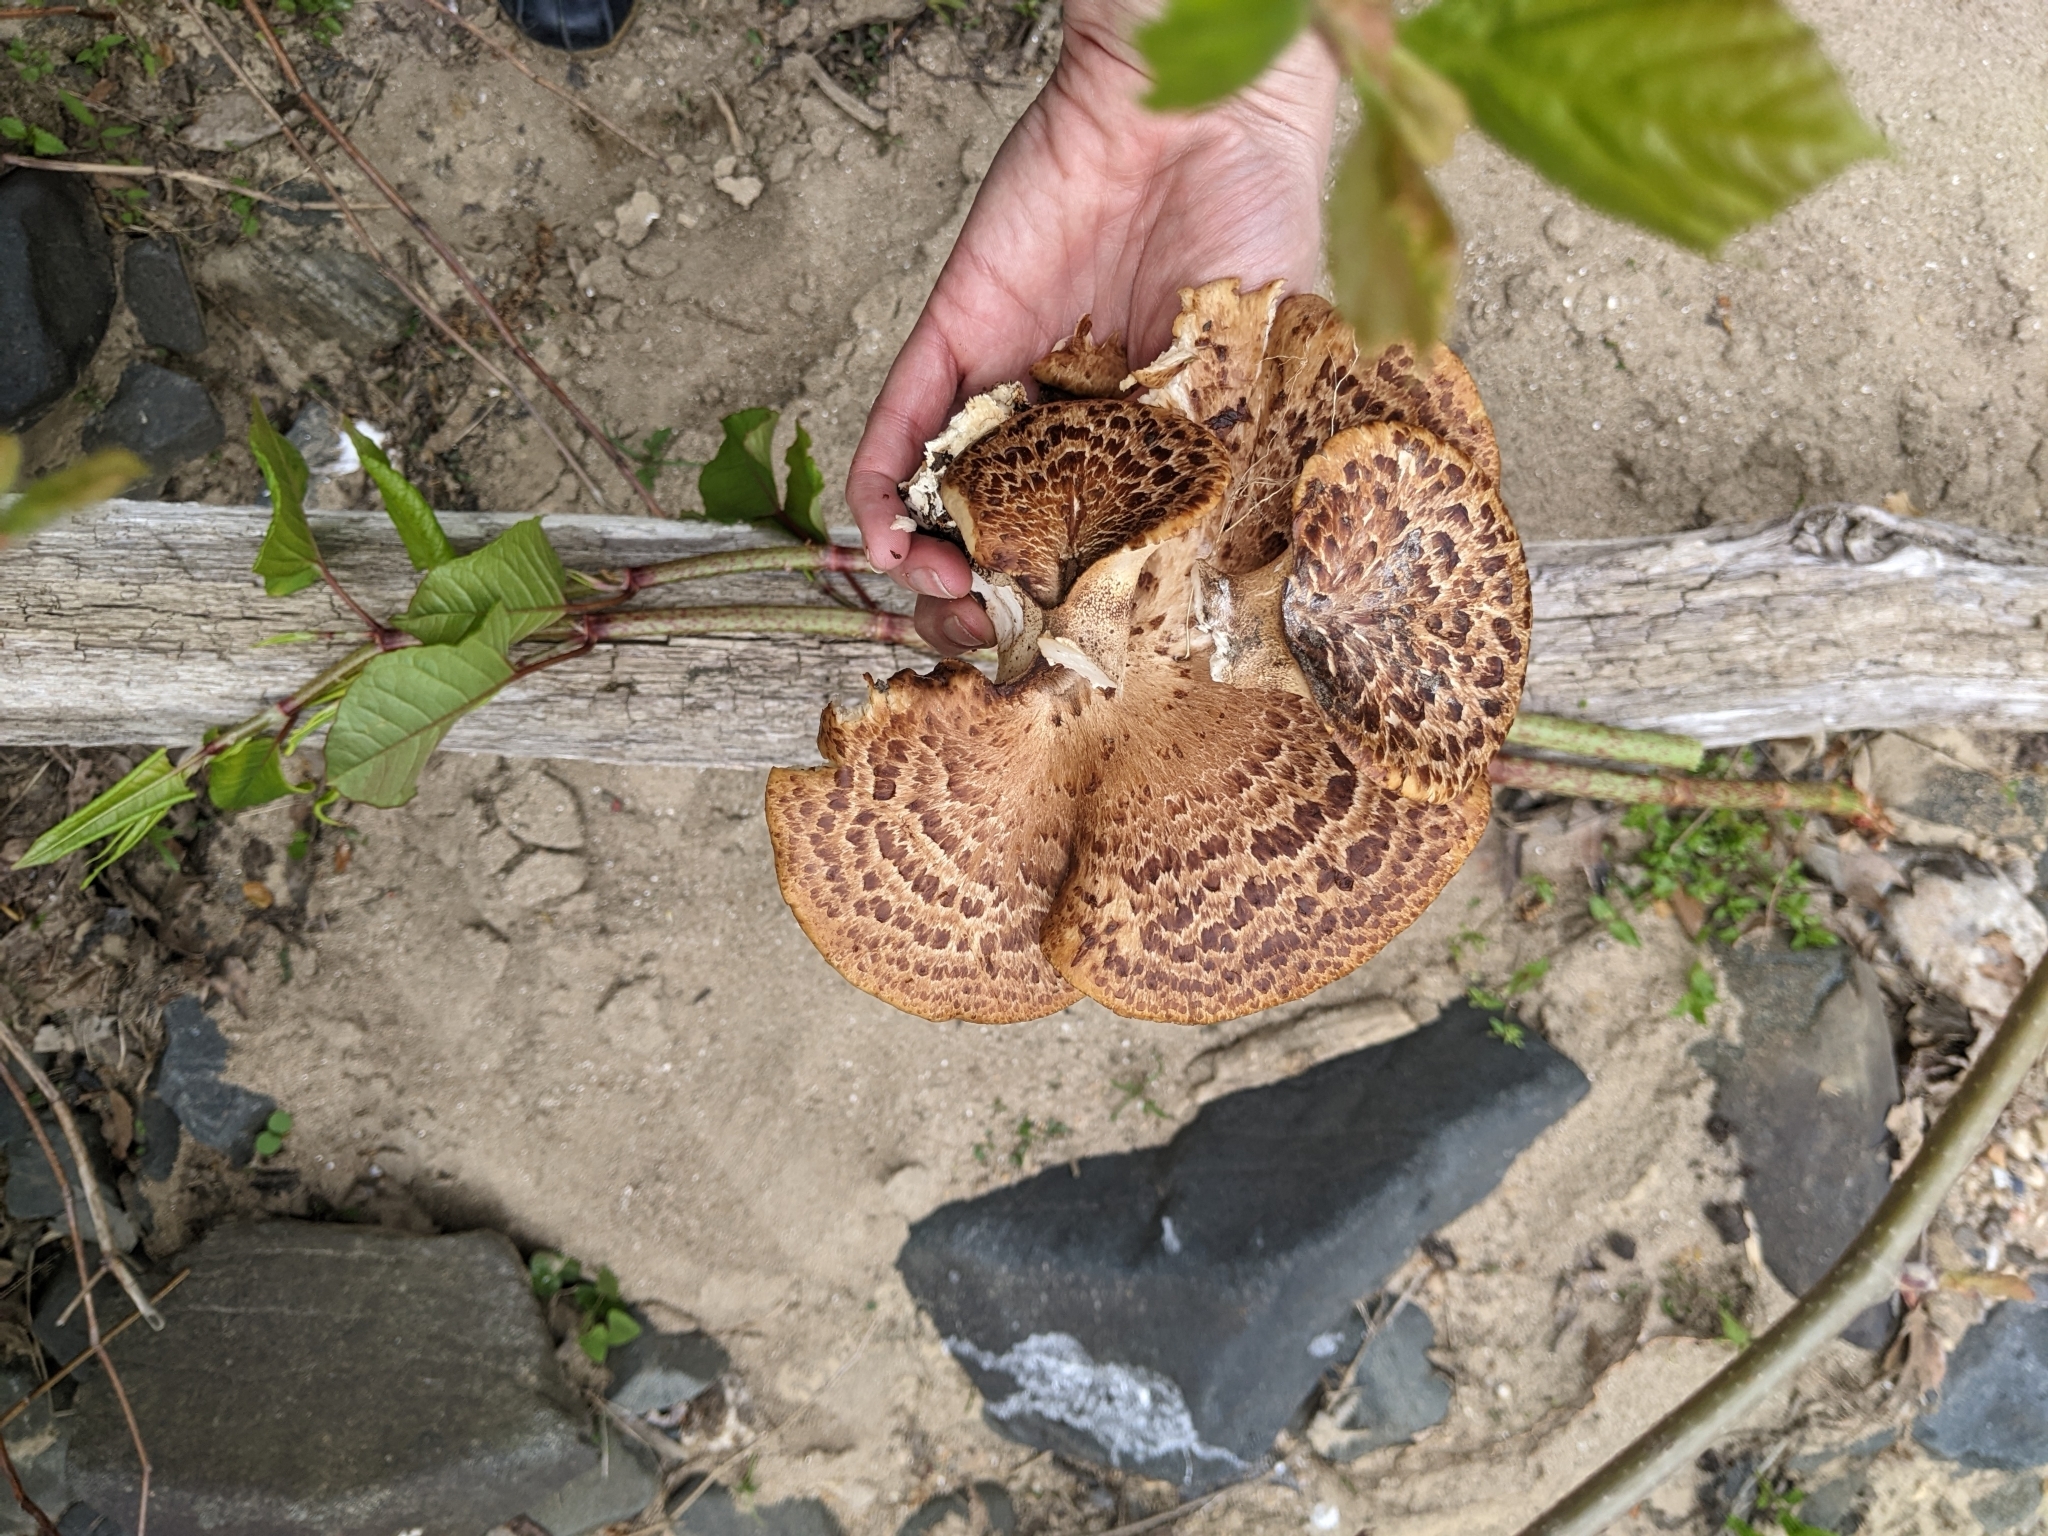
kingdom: Fungi
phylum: Basidiomycota
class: Agaricomycetes
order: Polyporales
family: Polyporaceae
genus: Cerioporus
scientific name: Cerioporus squamosus
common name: Dryad's saddle
